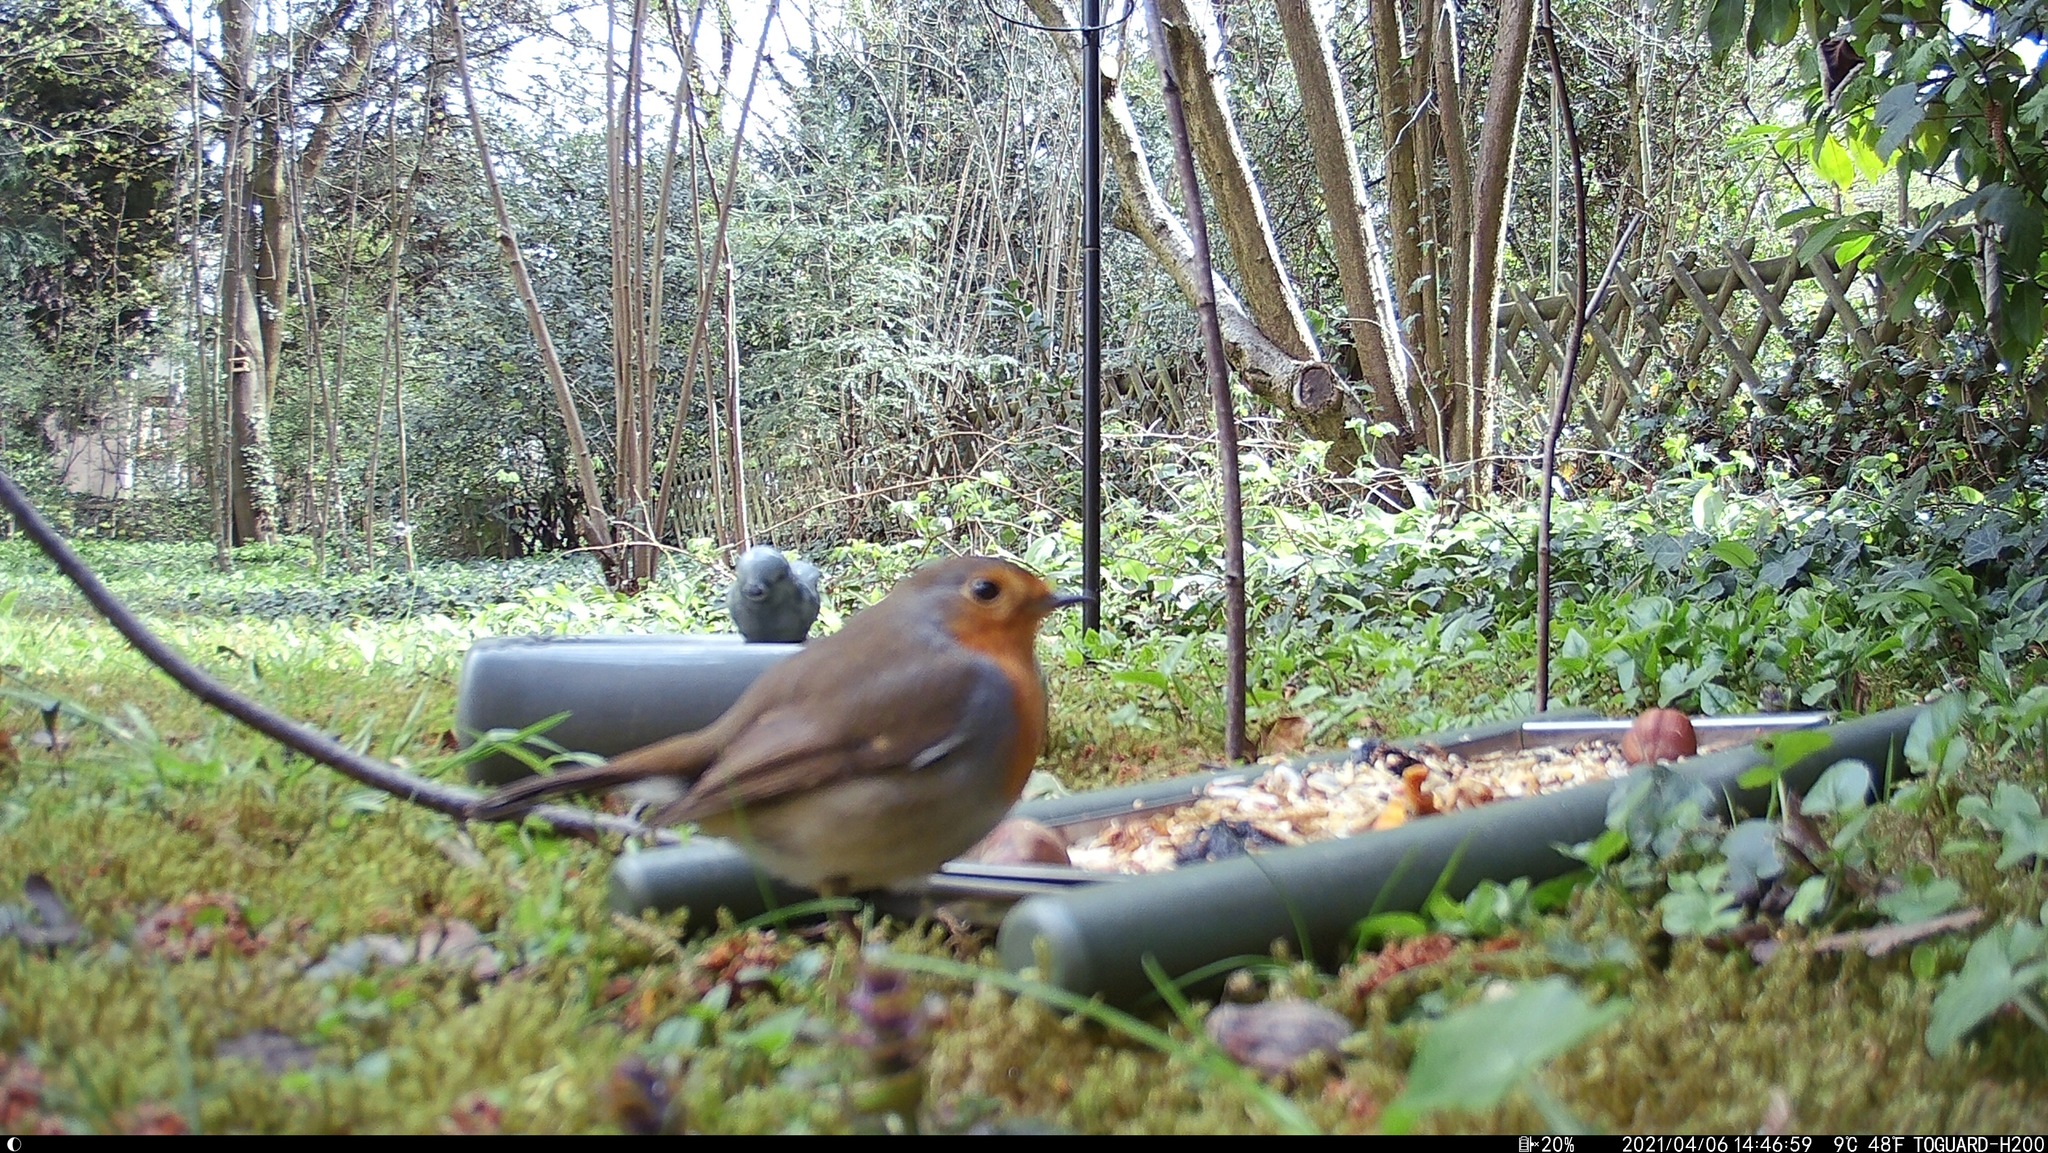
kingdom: Animalia
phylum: Chordata
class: Aves
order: Passeriformes
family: Muscicapidae
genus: Erithacus
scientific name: Erithacus rubecula
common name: European robin
